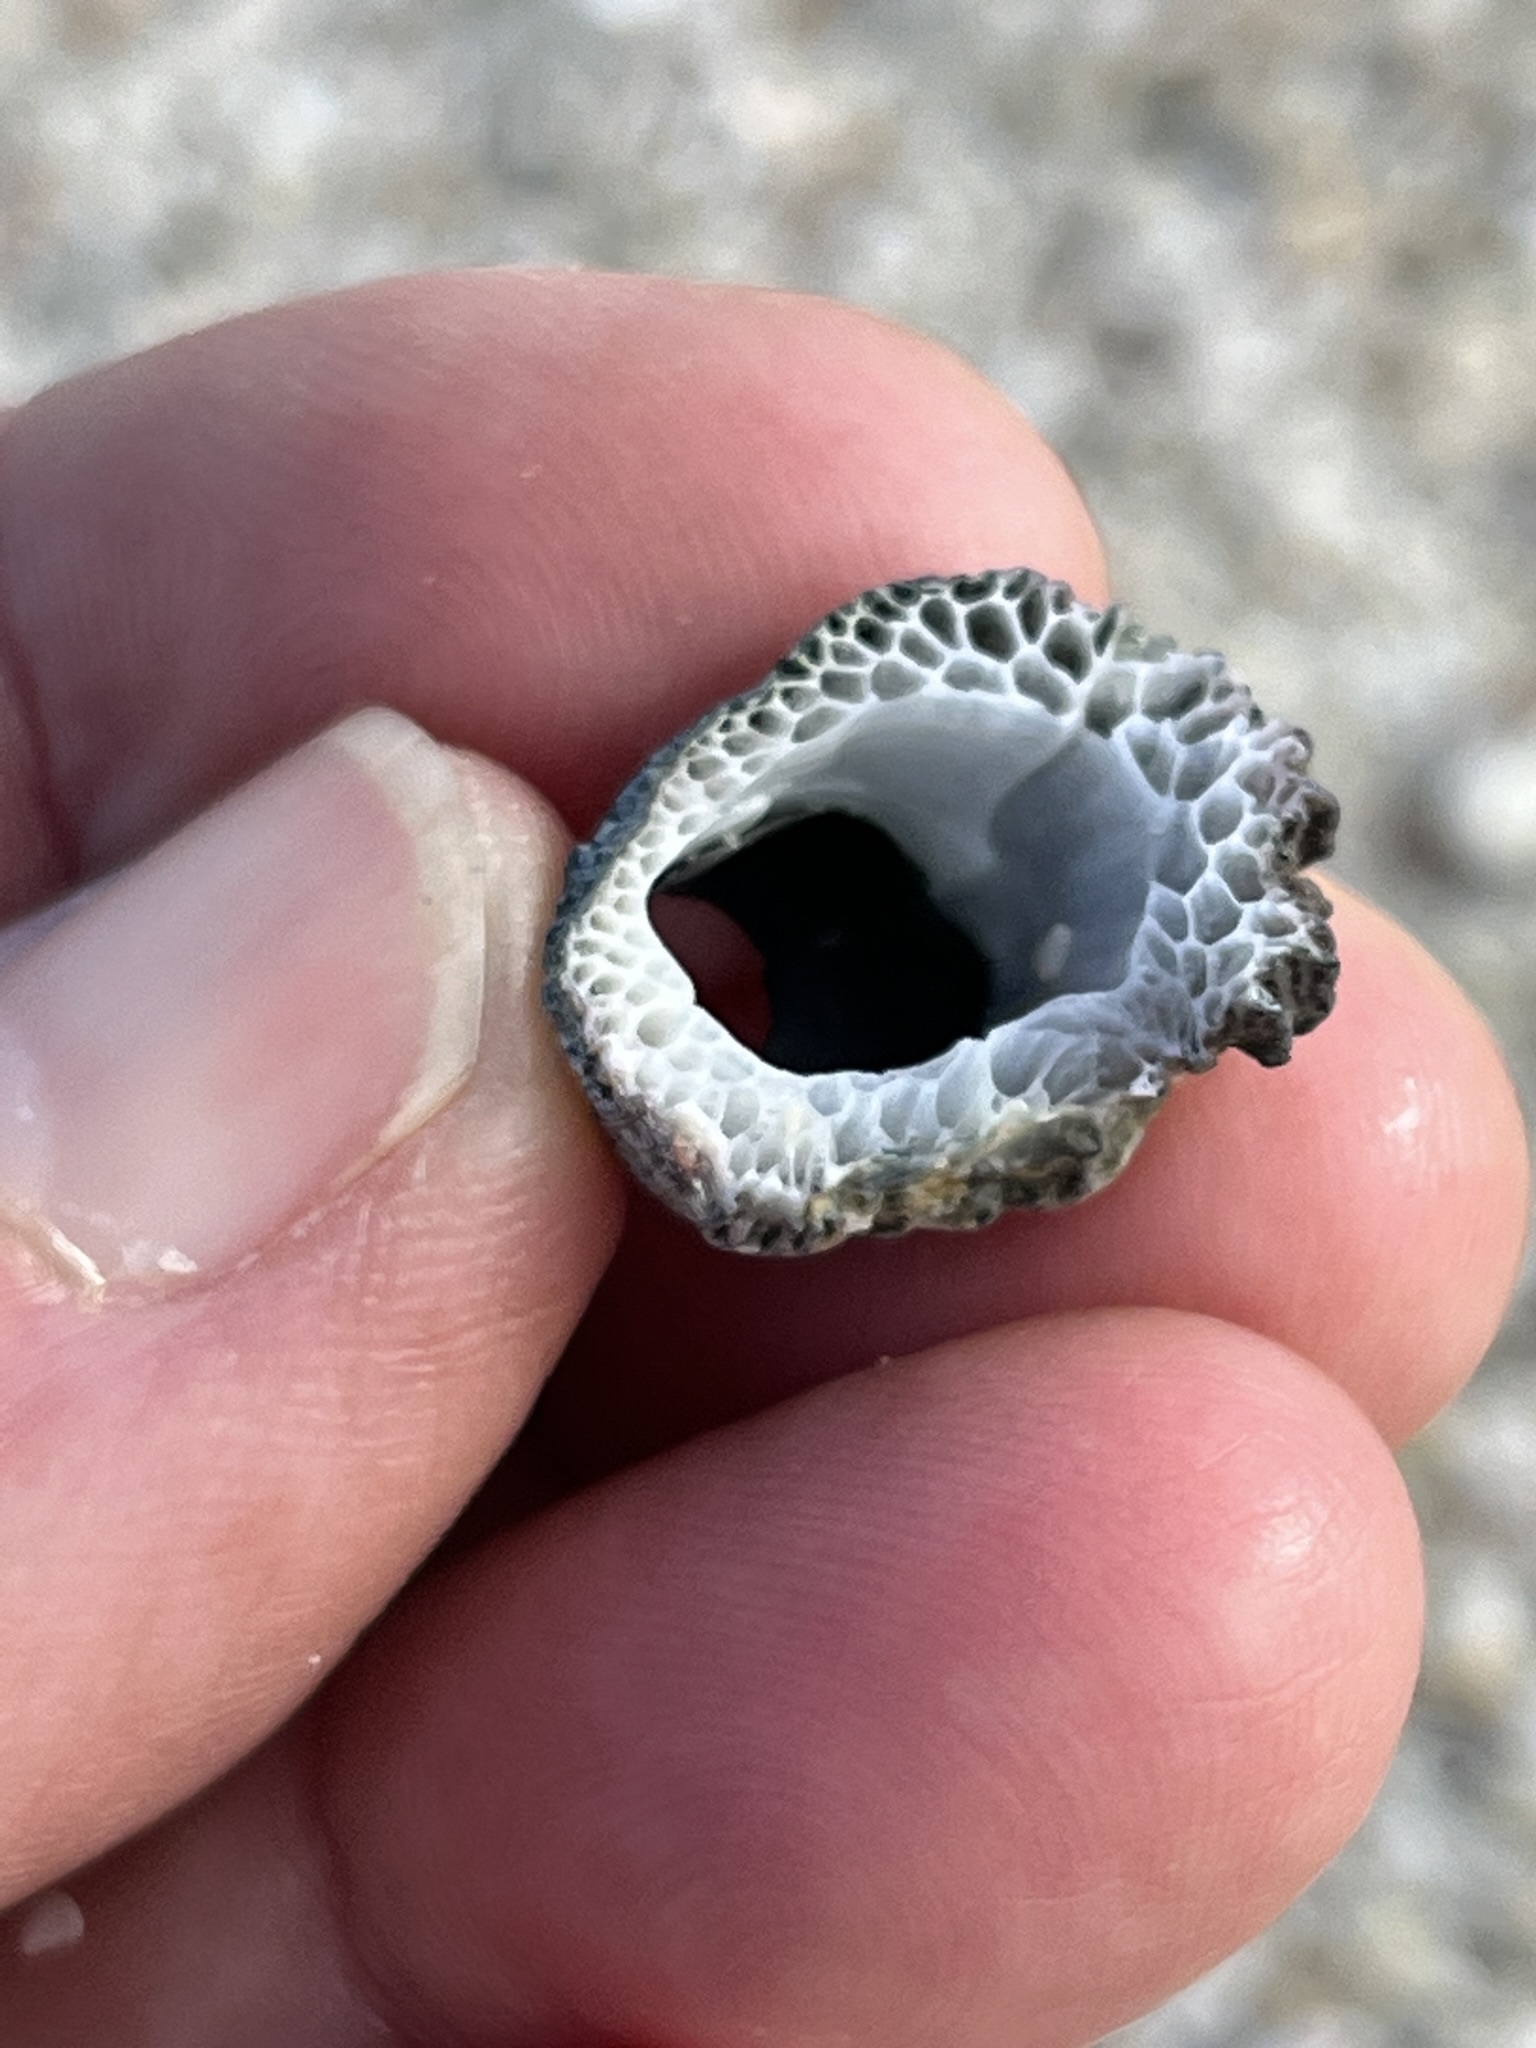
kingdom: Animalia
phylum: Arthropoda
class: Maxillopoda
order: Sessilia
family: Tetraclitidae
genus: Tetraclita
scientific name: Tetraclita serrata
